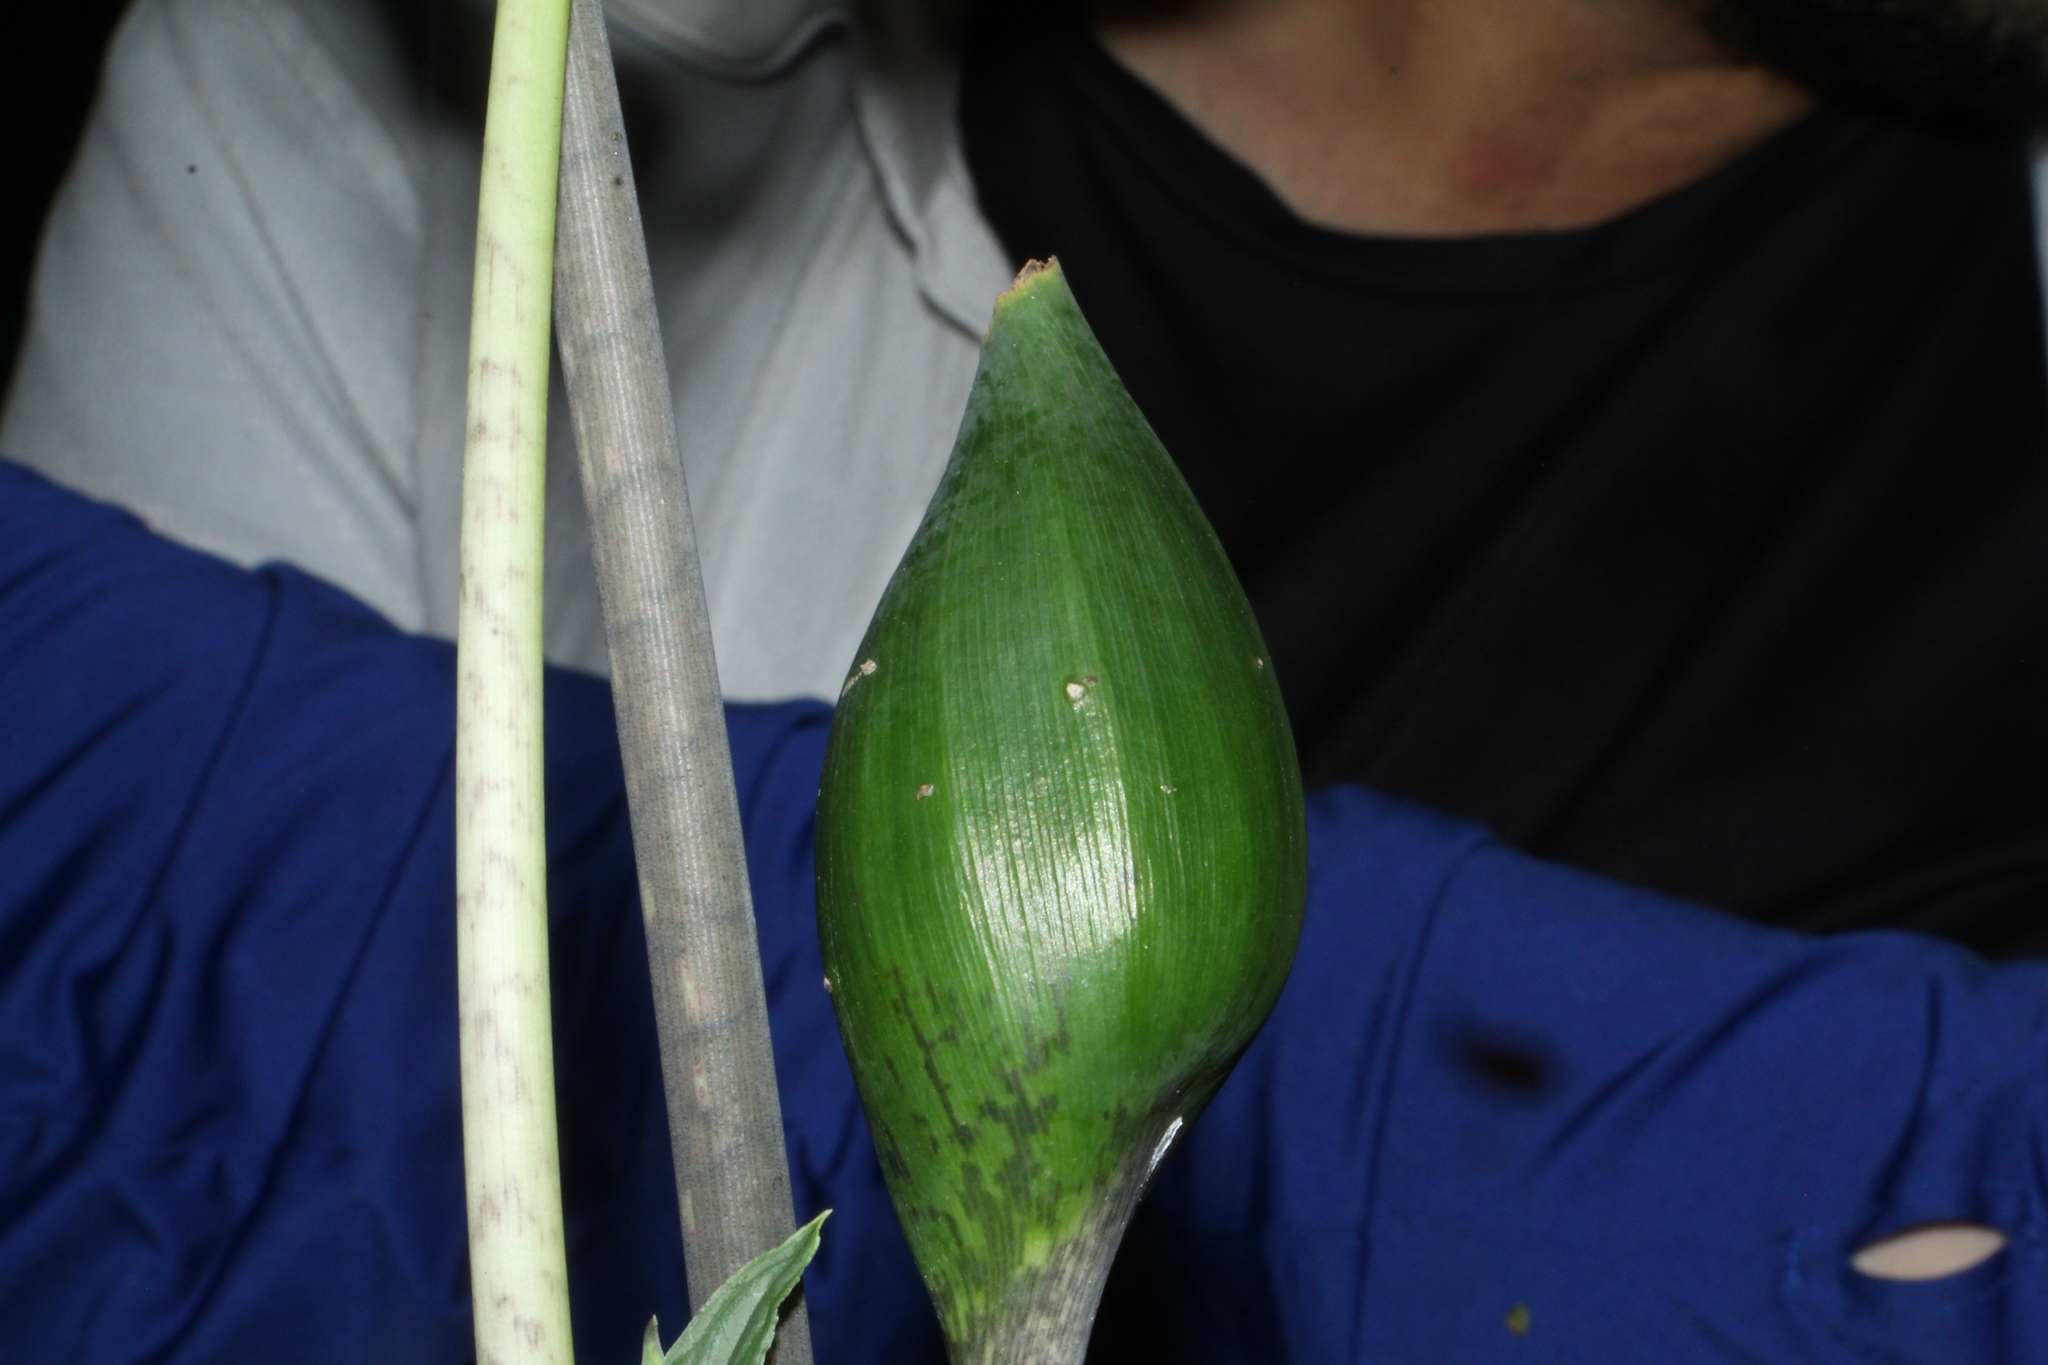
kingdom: Plantae
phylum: Tracheophyta
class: Liliopsida
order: Alismatales
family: Araceae
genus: Xanthosoma
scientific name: Xanthosoma helleborifolium
